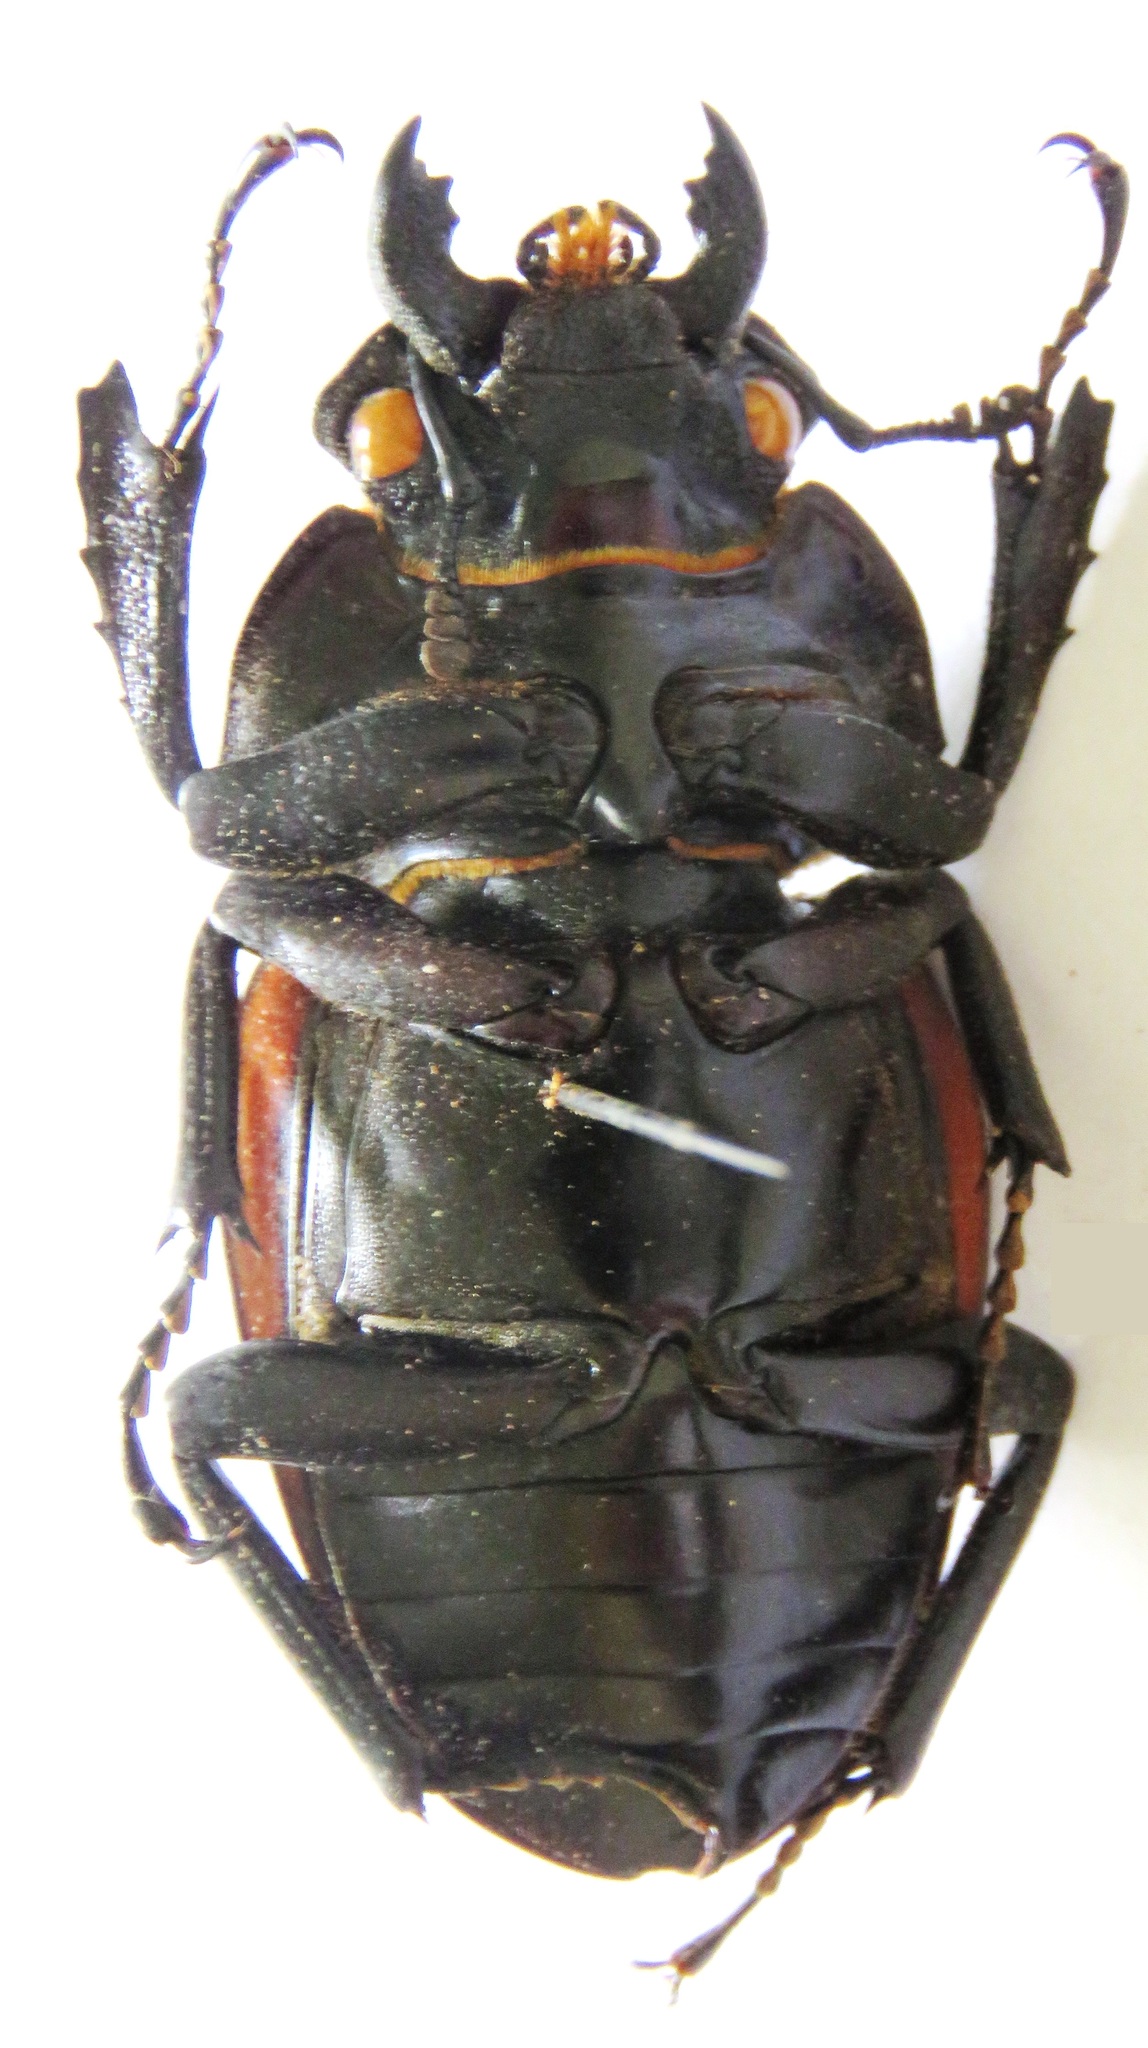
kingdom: Animalia
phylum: Arthropoda
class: Insecta
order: Coleoptera
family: Lucanidae
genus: Odontolabis
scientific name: Odontolabis cuvera
